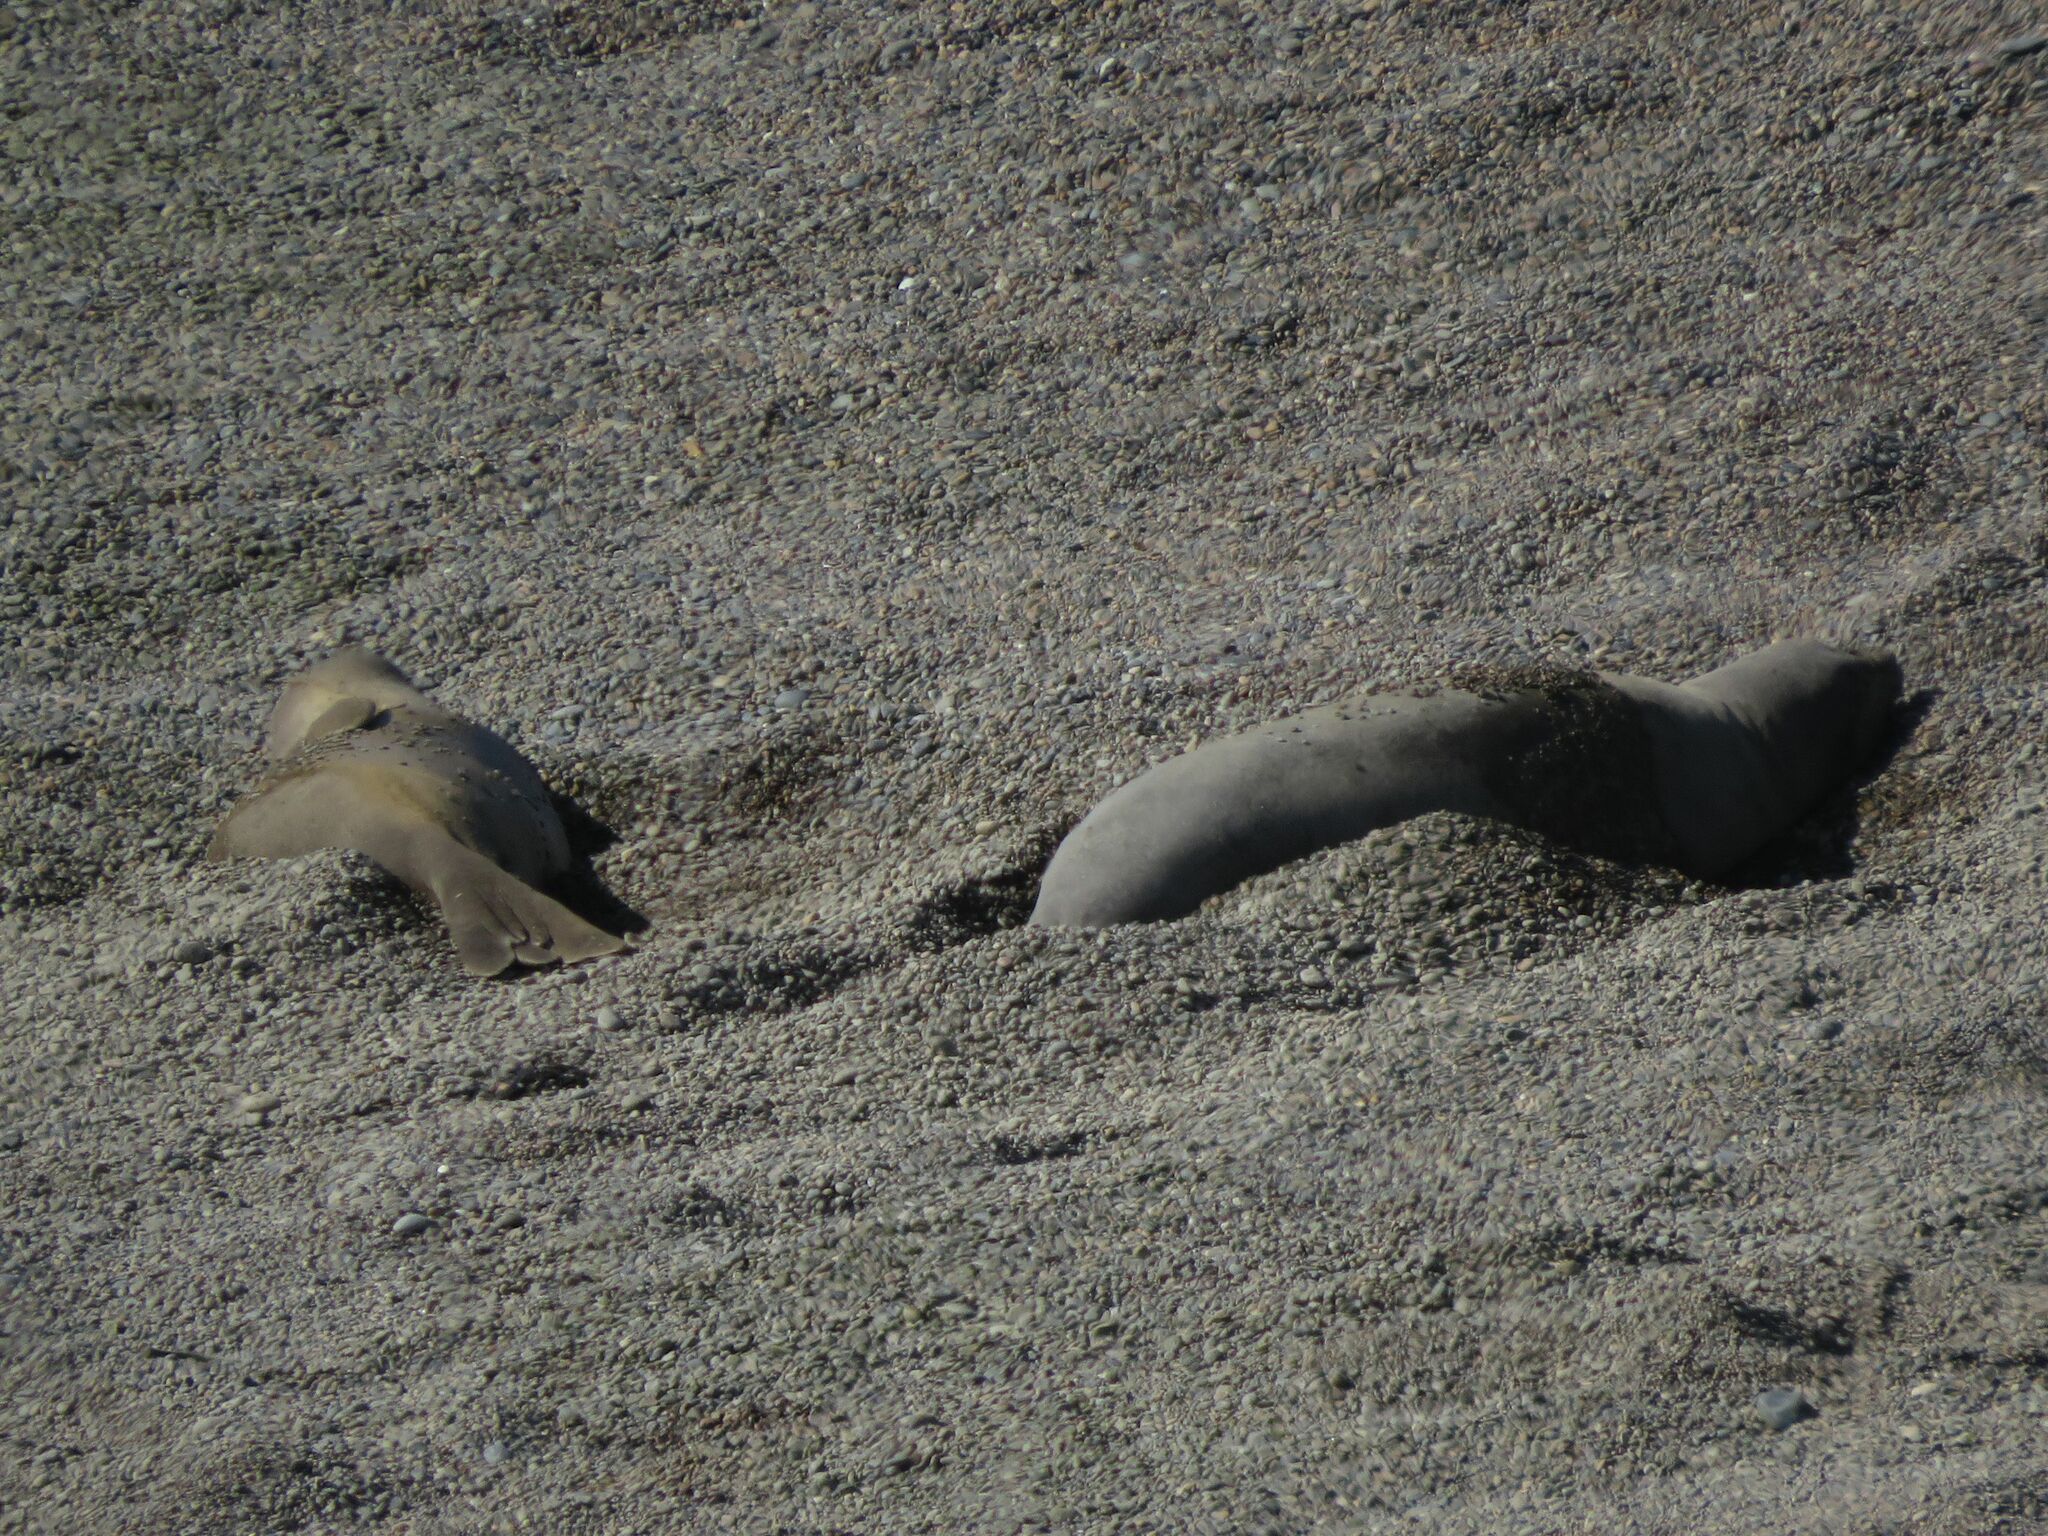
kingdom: Animalia
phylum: Chordata
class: Mammalia
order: Carnivora
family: Phocidae
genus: Mirounga
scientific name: Mirounga leonina
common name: Southern elephant seal
